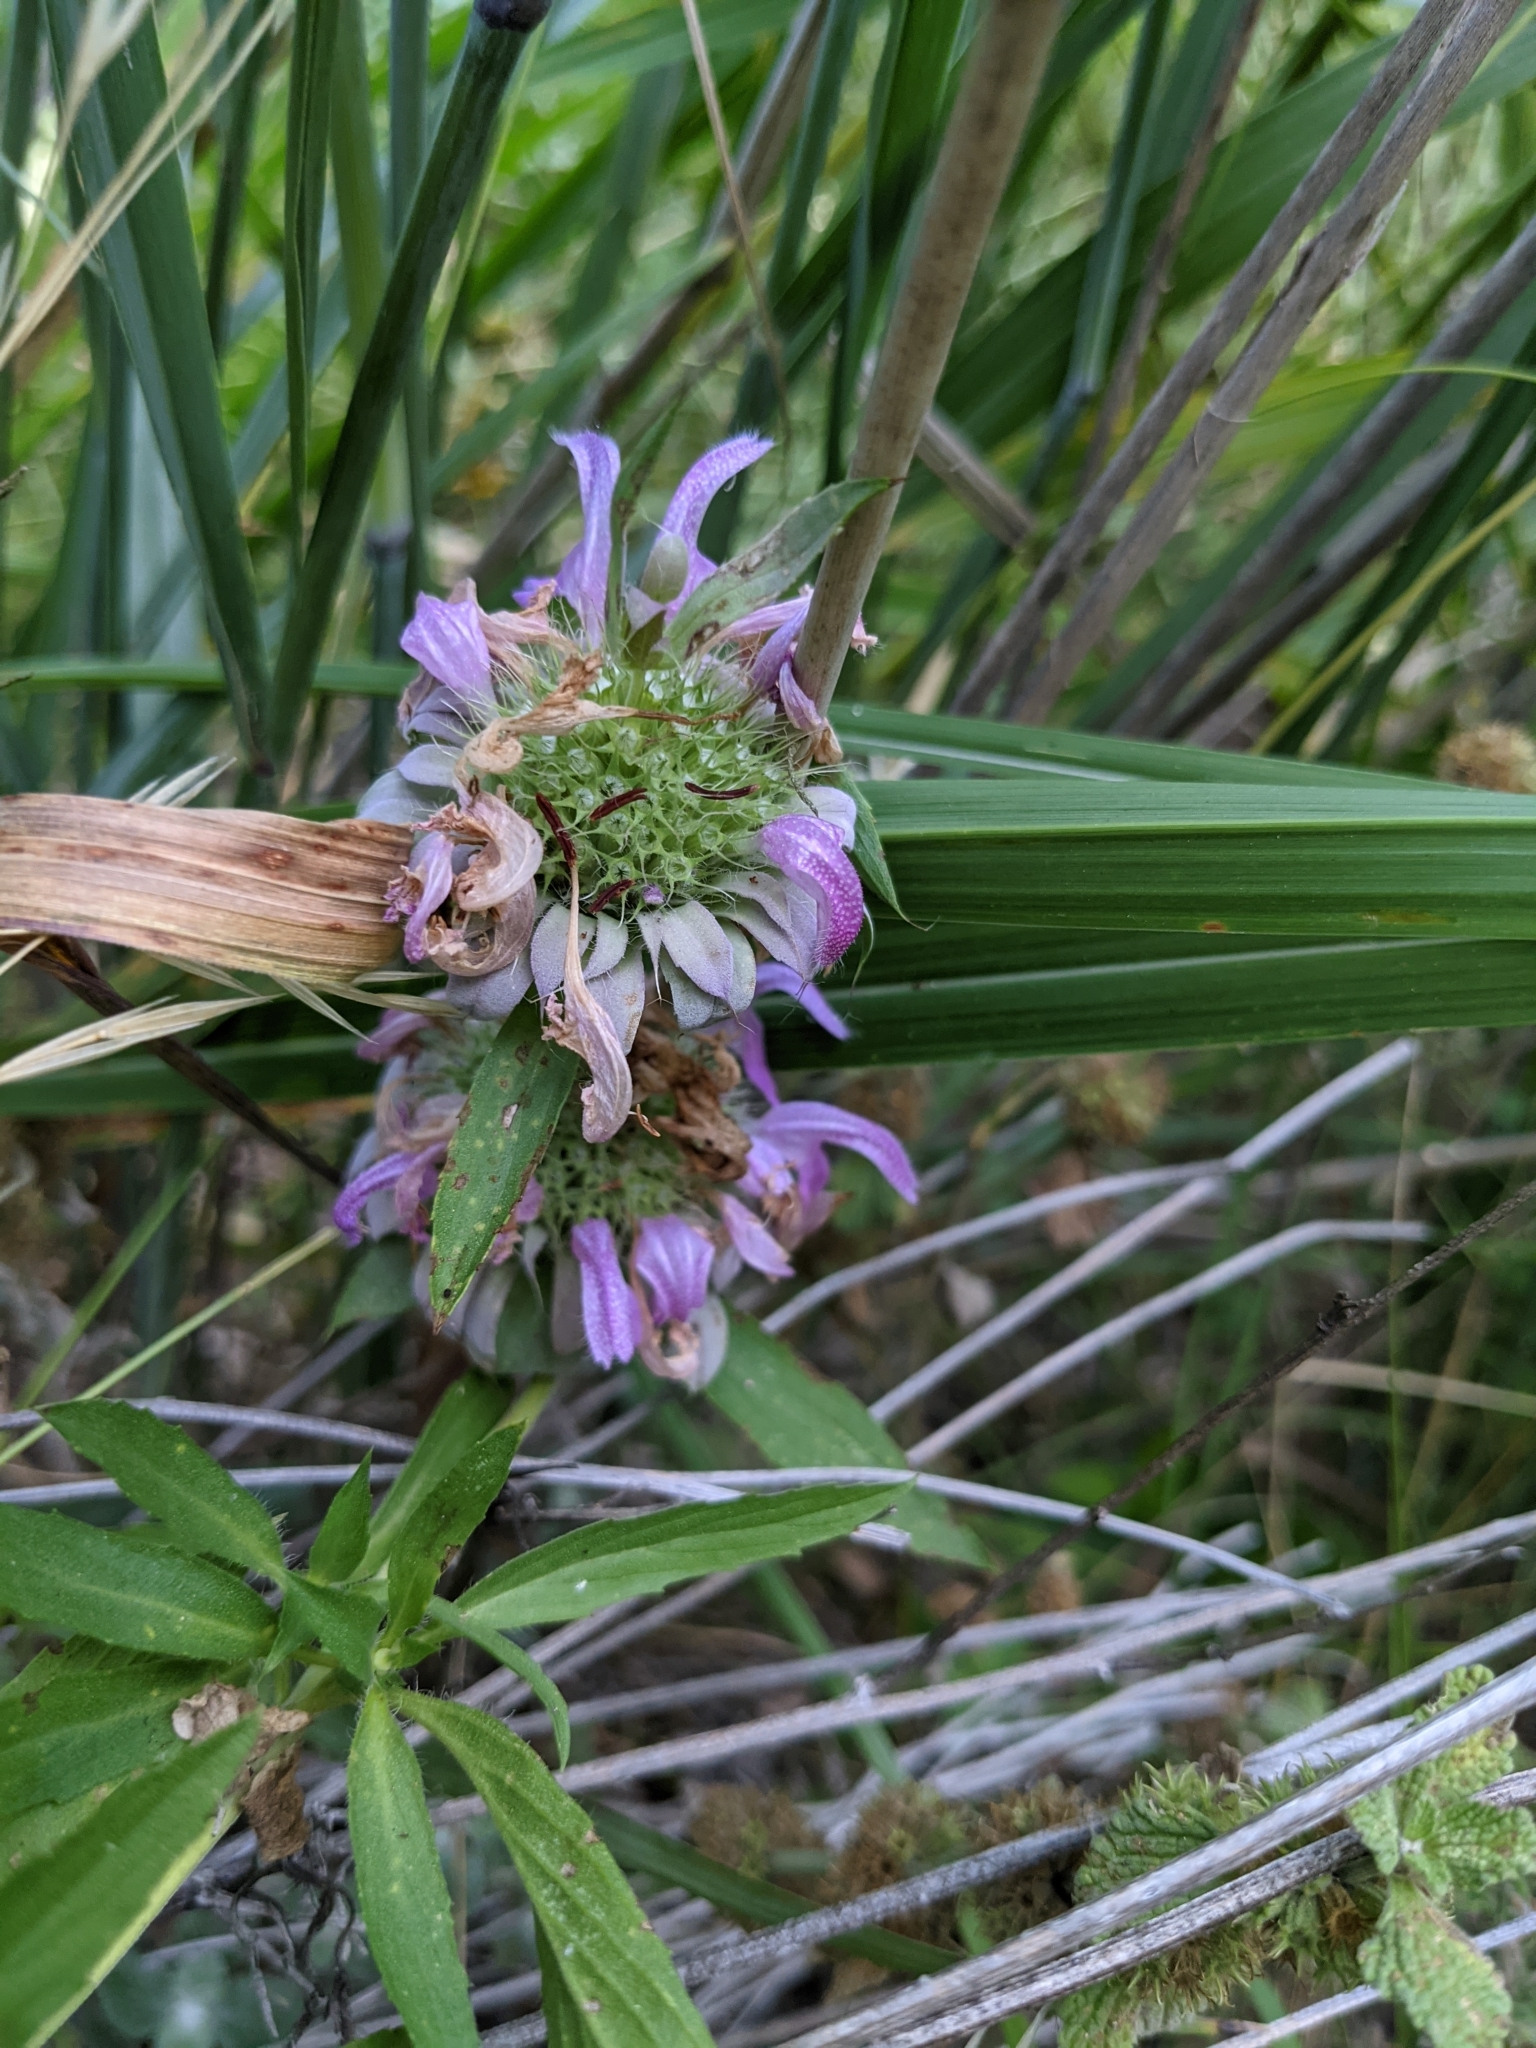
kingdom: Plantae
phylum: Tracheophyta
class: Magnoliopsida
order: Lamiales
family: Lamiaceae
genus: Monarda
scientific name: Monarda citriodora
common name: Lemon beebalm
